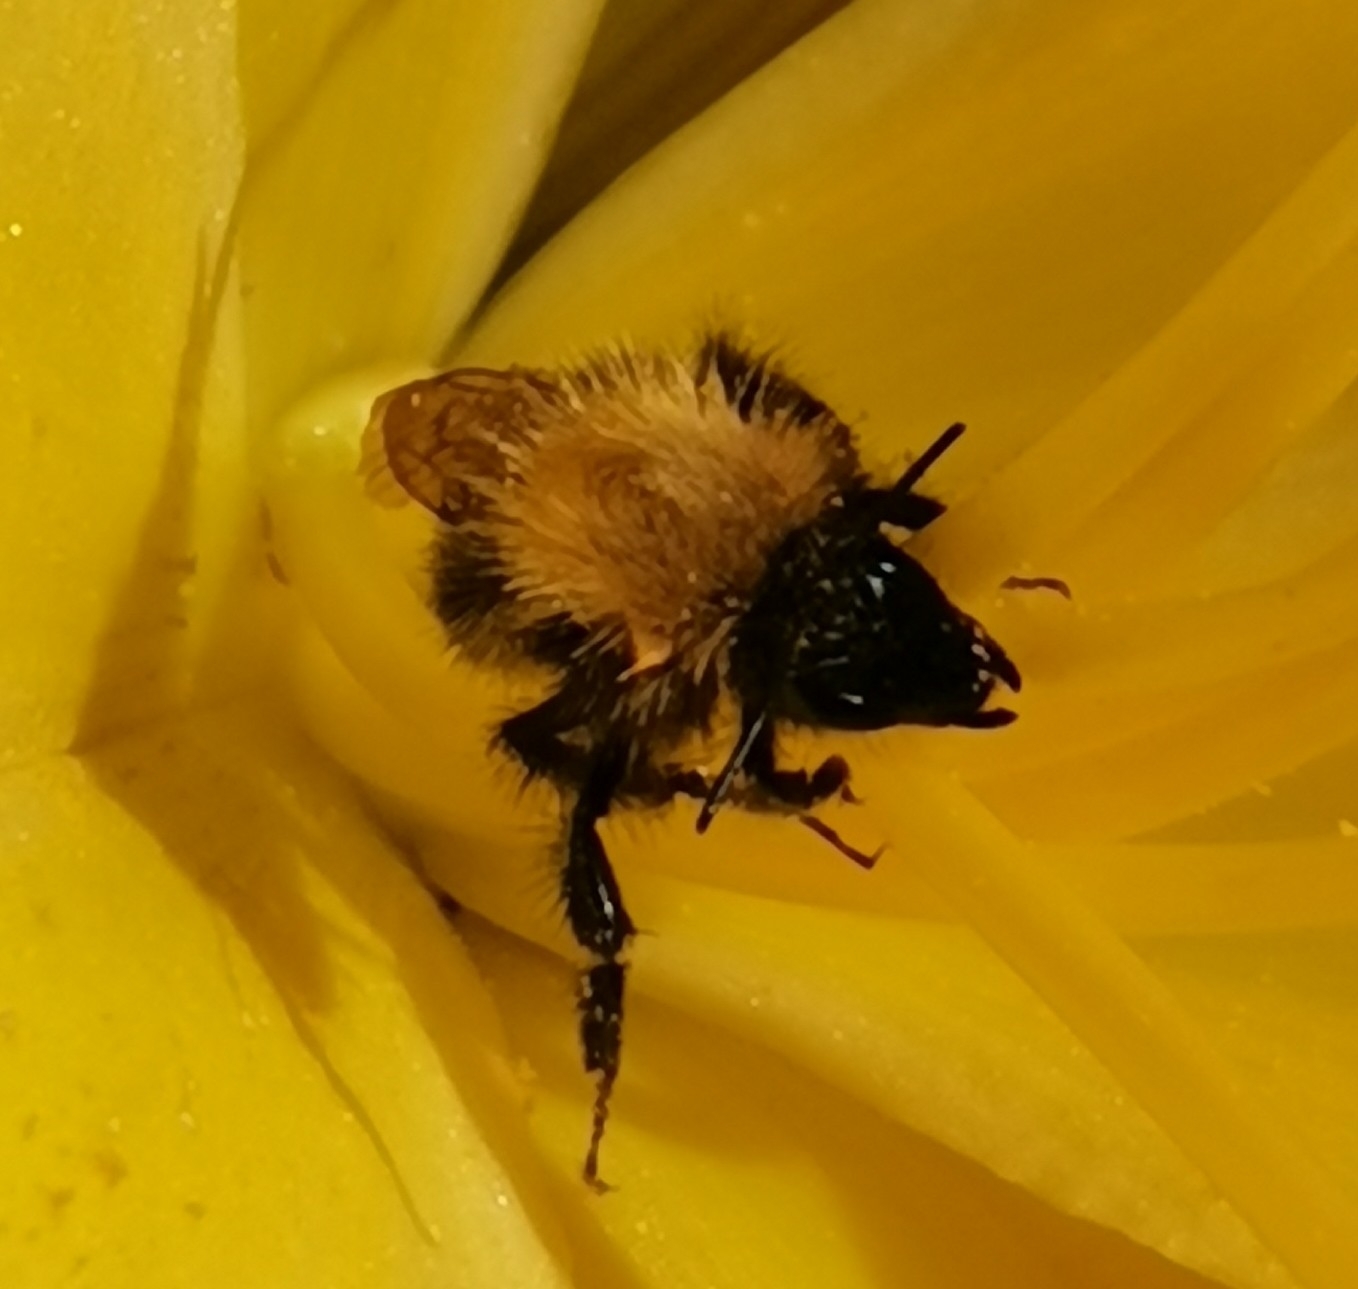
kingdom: Animalia
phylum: Arthropoda
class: Insecta
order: Hymenoptera
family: Apidae
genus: Bombus
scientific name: Bombus pascuorum
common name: Common carder bee
